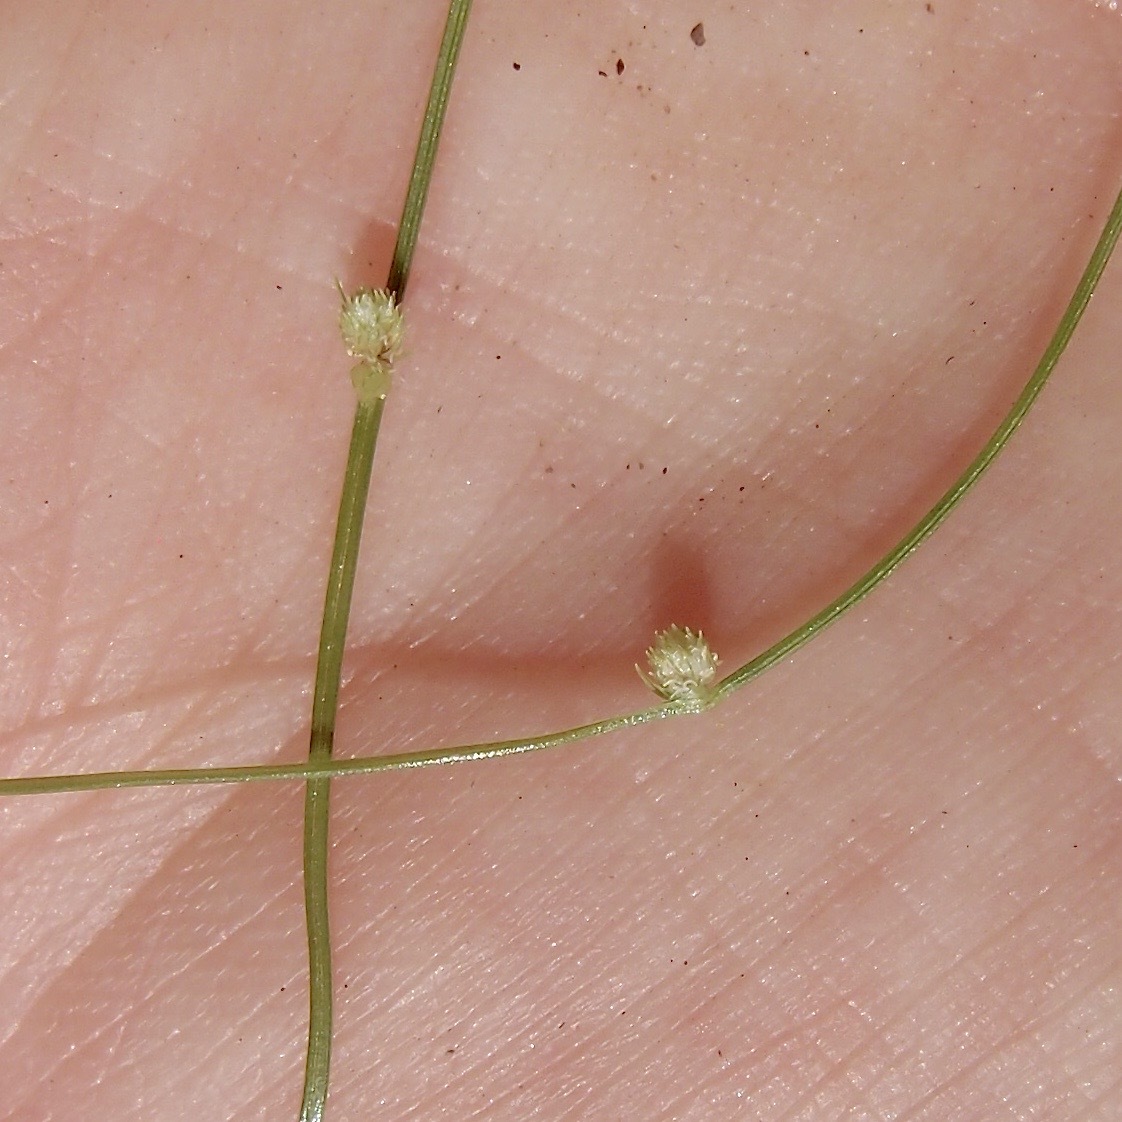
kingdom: Plantae
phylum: Tracheophyta
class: Liliopsida
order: Poales
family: Cyperaceae
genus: Cyperus
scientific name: Cyperus subsquarrosus
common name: Dwarf bulrush
